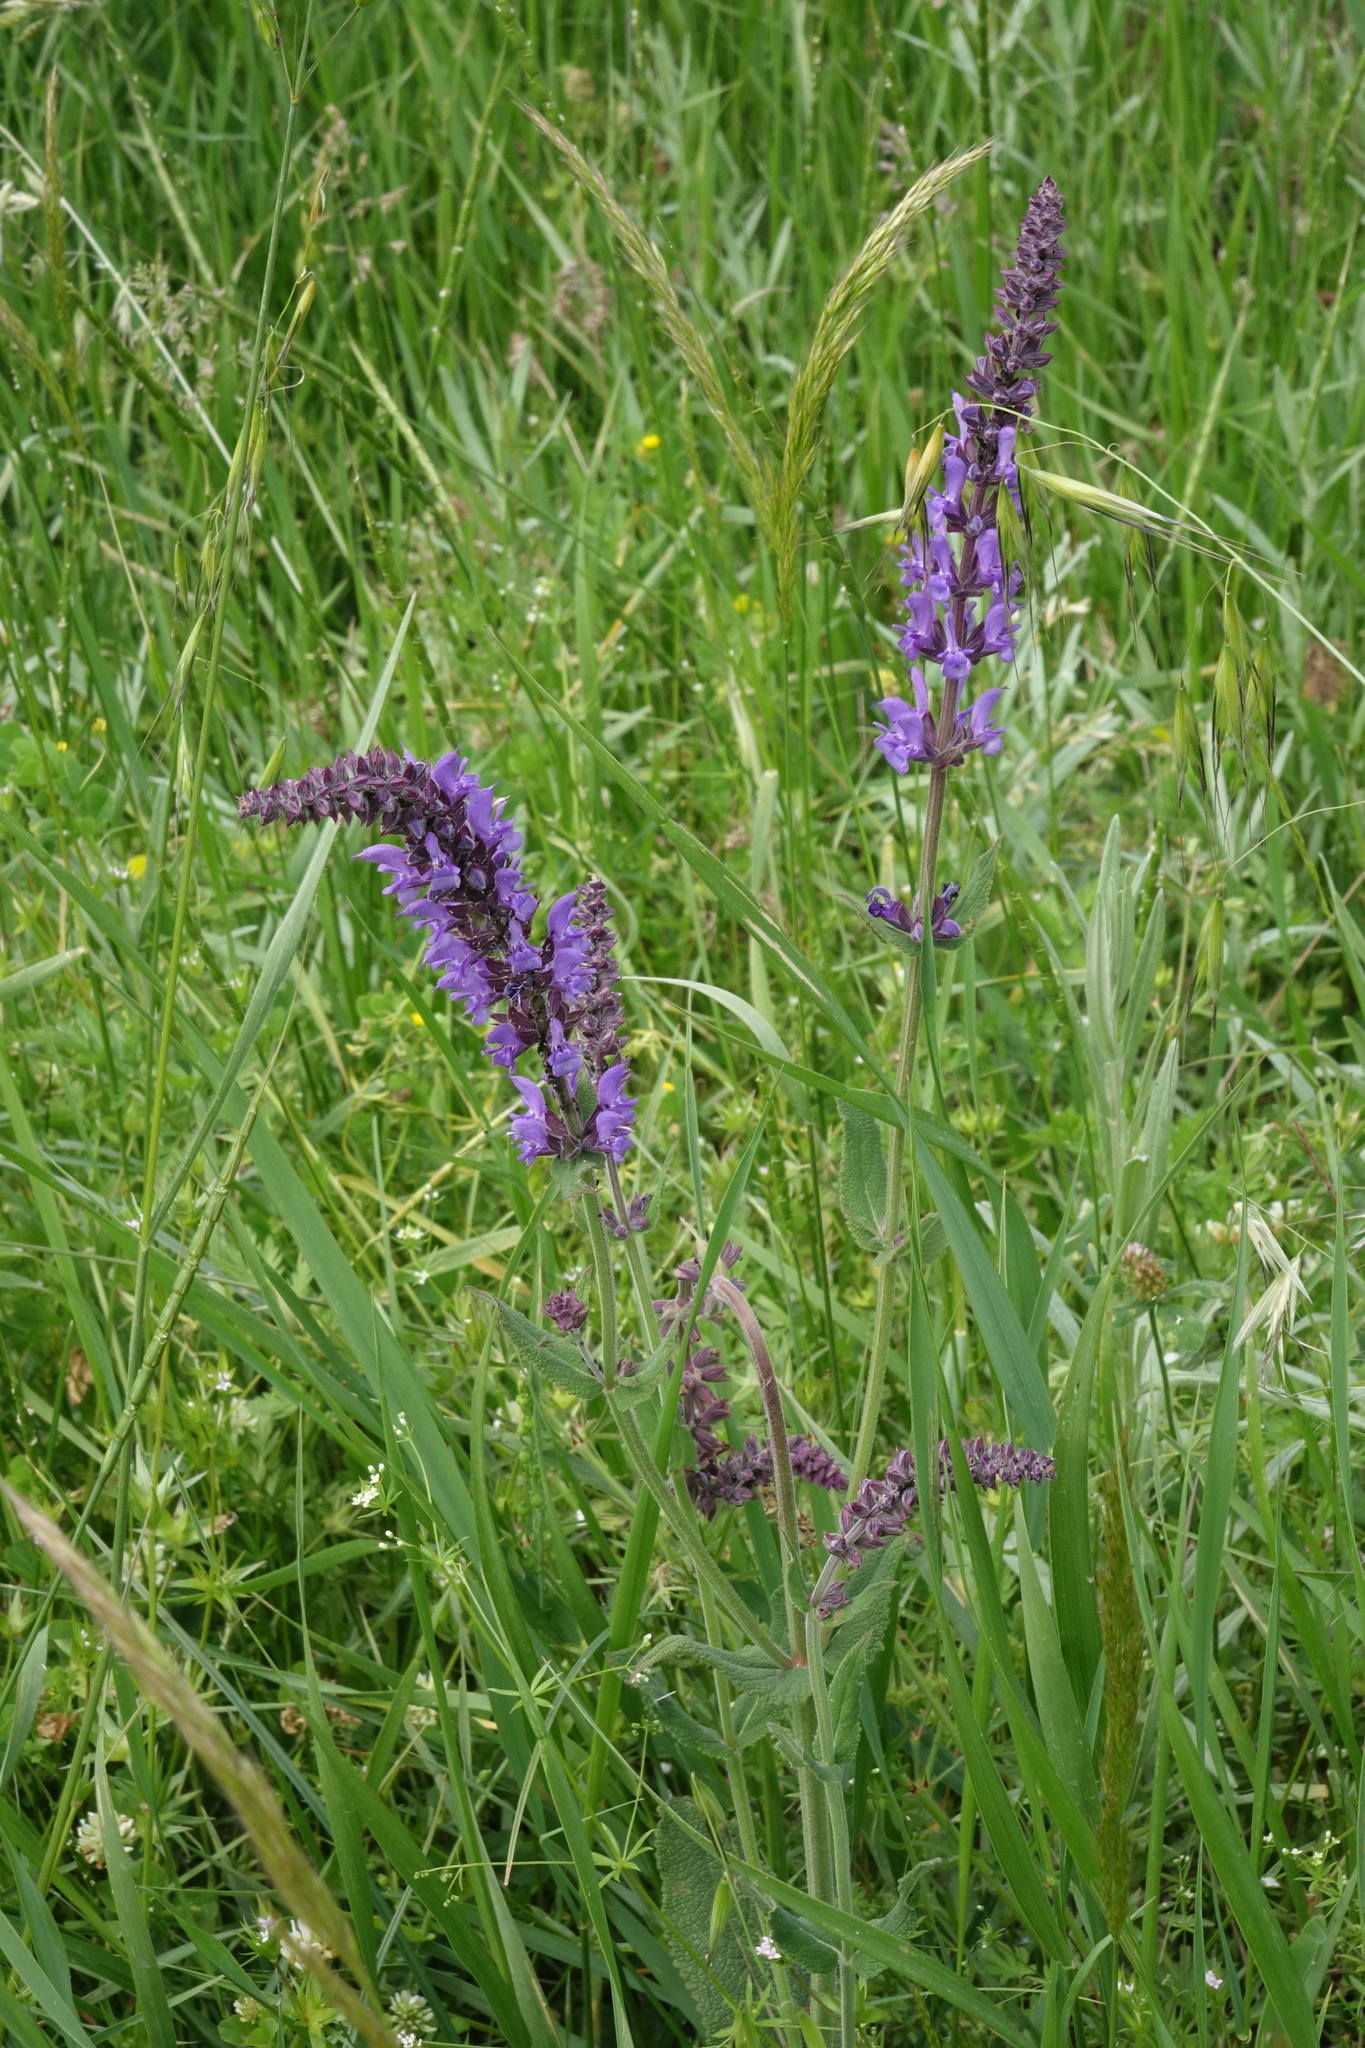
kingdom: Plantae
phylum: Tracheophyta
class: Magnoliopsida
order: Lamiales
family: Lamiaceae
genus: Salvia
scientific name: Salvia nemorosa
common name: Balkan clary
